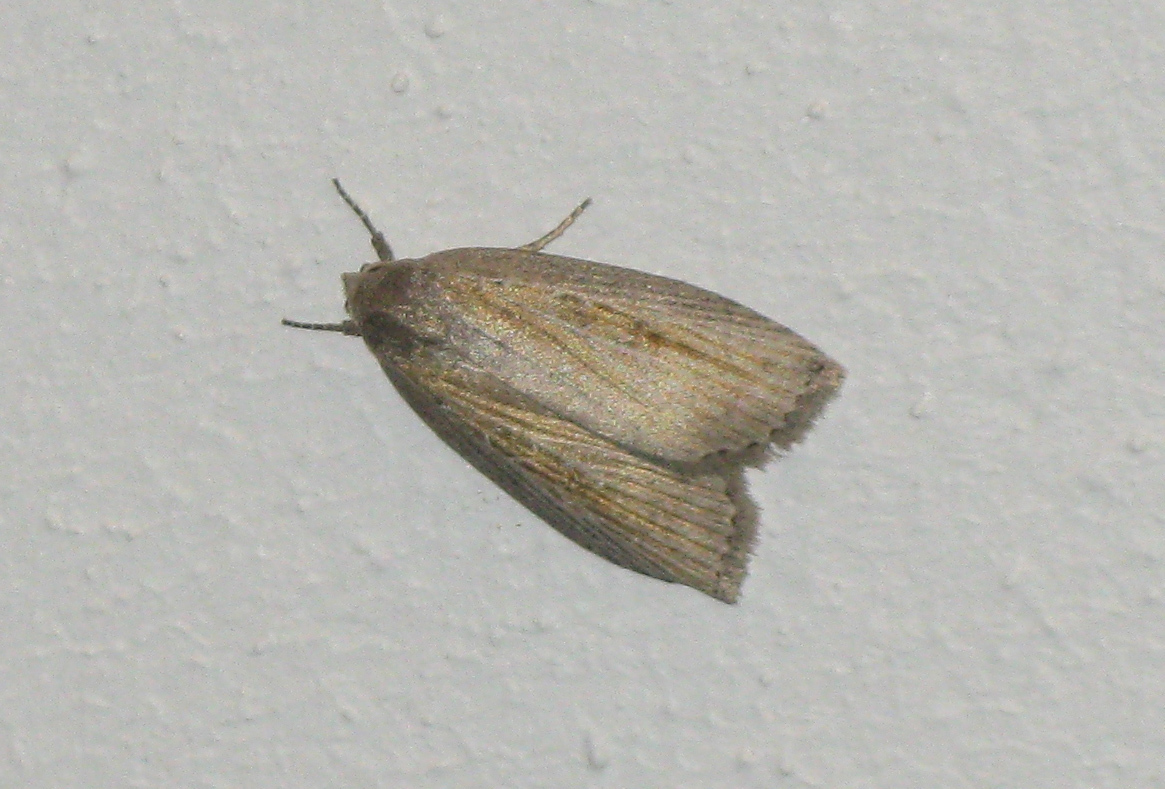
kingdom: Animalia
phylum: Arthropoda
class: Insecta
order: Lepidoptera
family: Noctuidae
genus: Chilodes
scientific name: Chilodes maritima
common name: Silky wainscot
